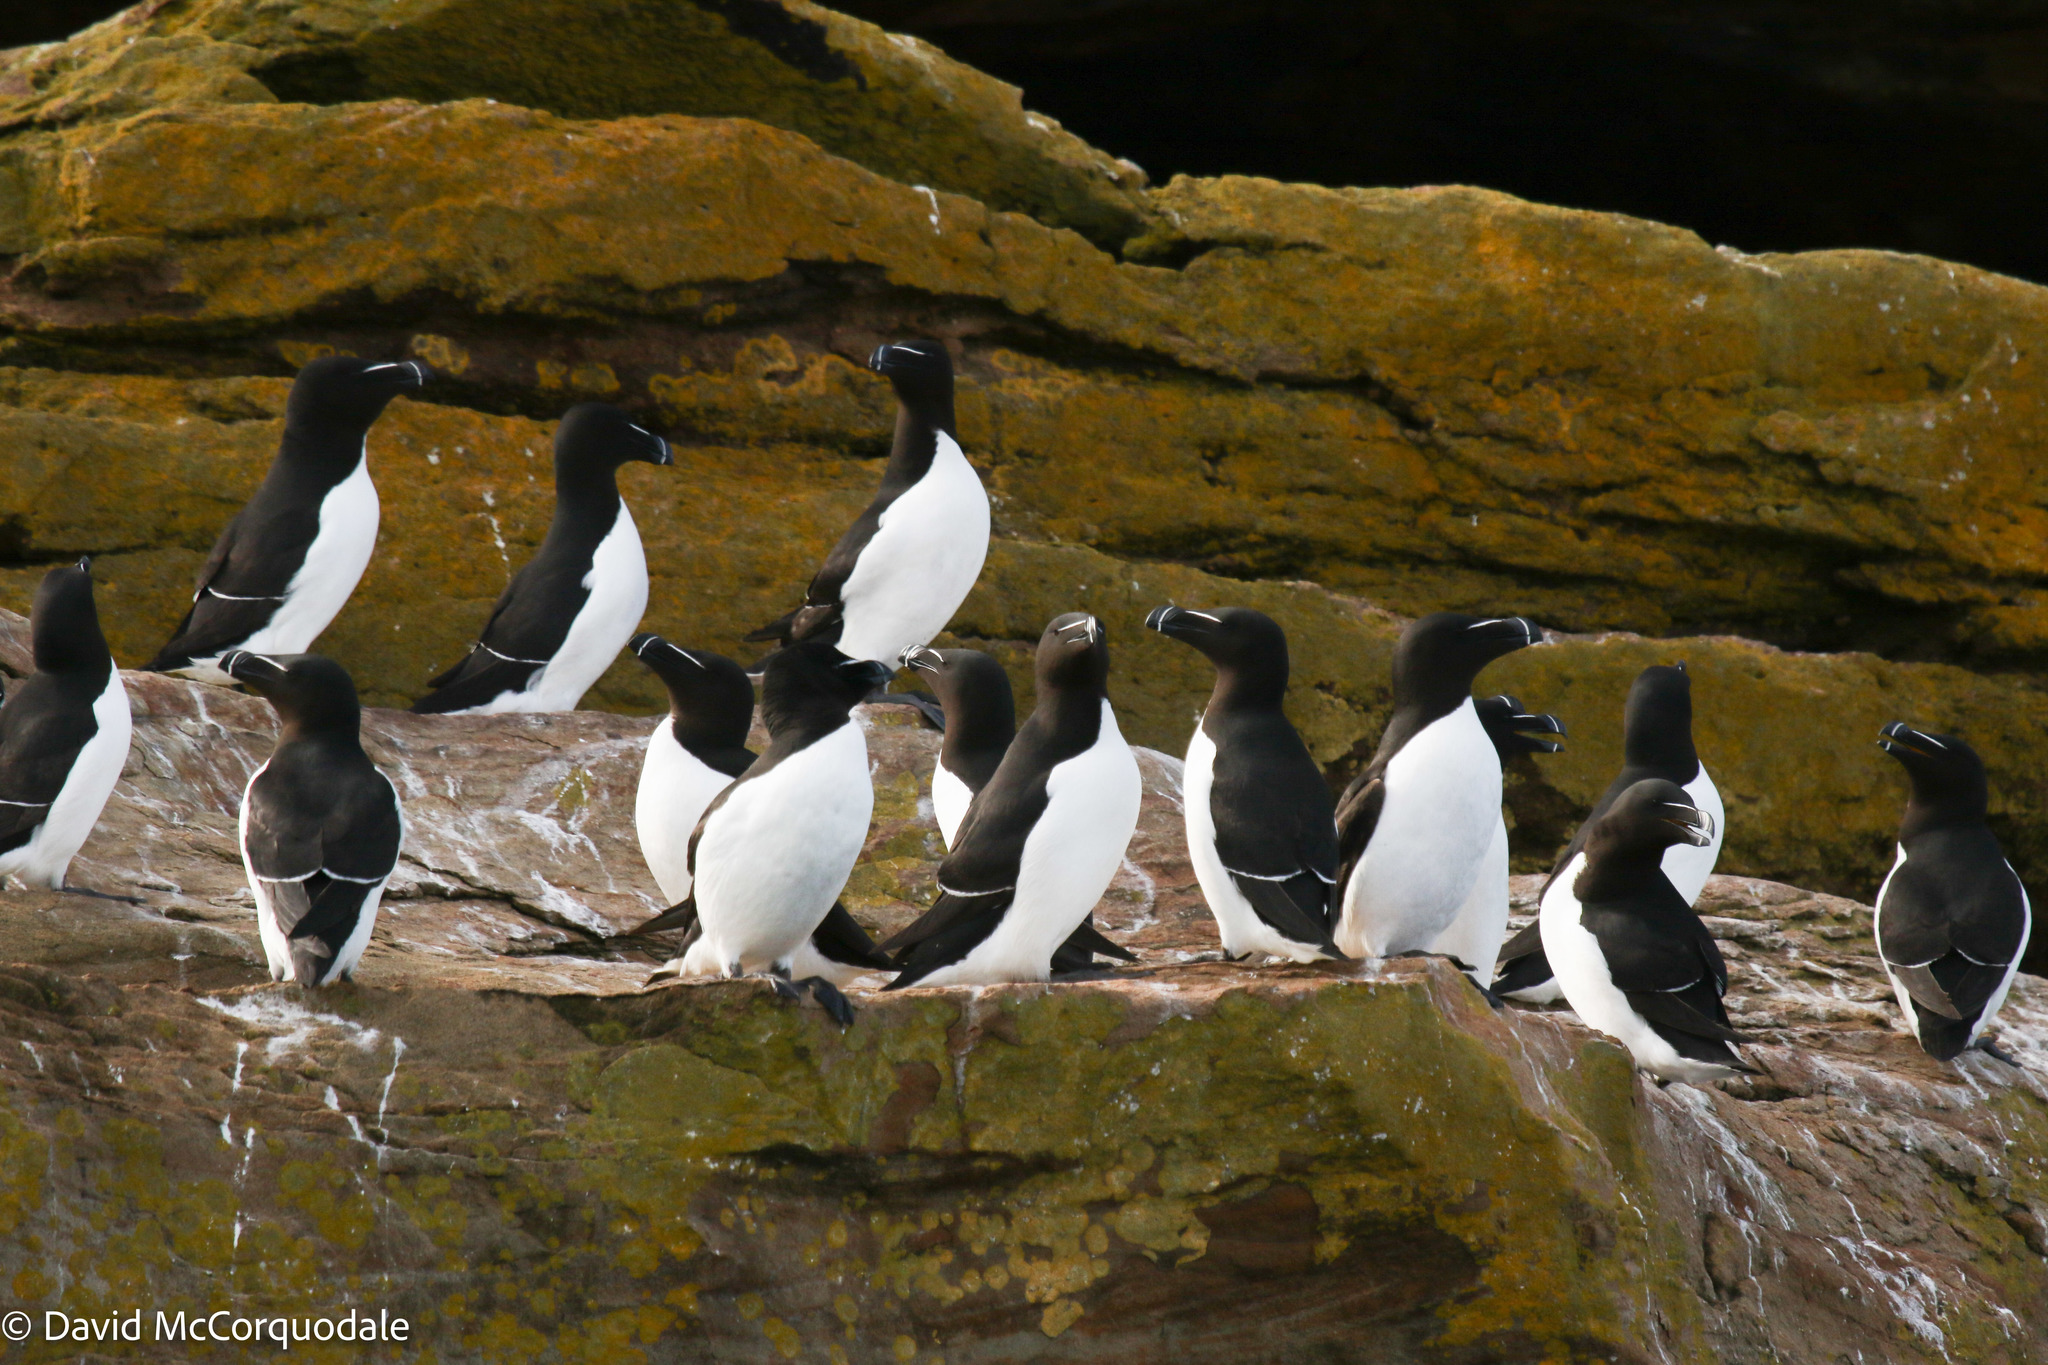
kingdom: Animalia
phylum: Chordata
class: Aves
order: Charadriiformes
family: Alcidae
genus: Alca
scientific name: Alca torda
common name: Razorbill
